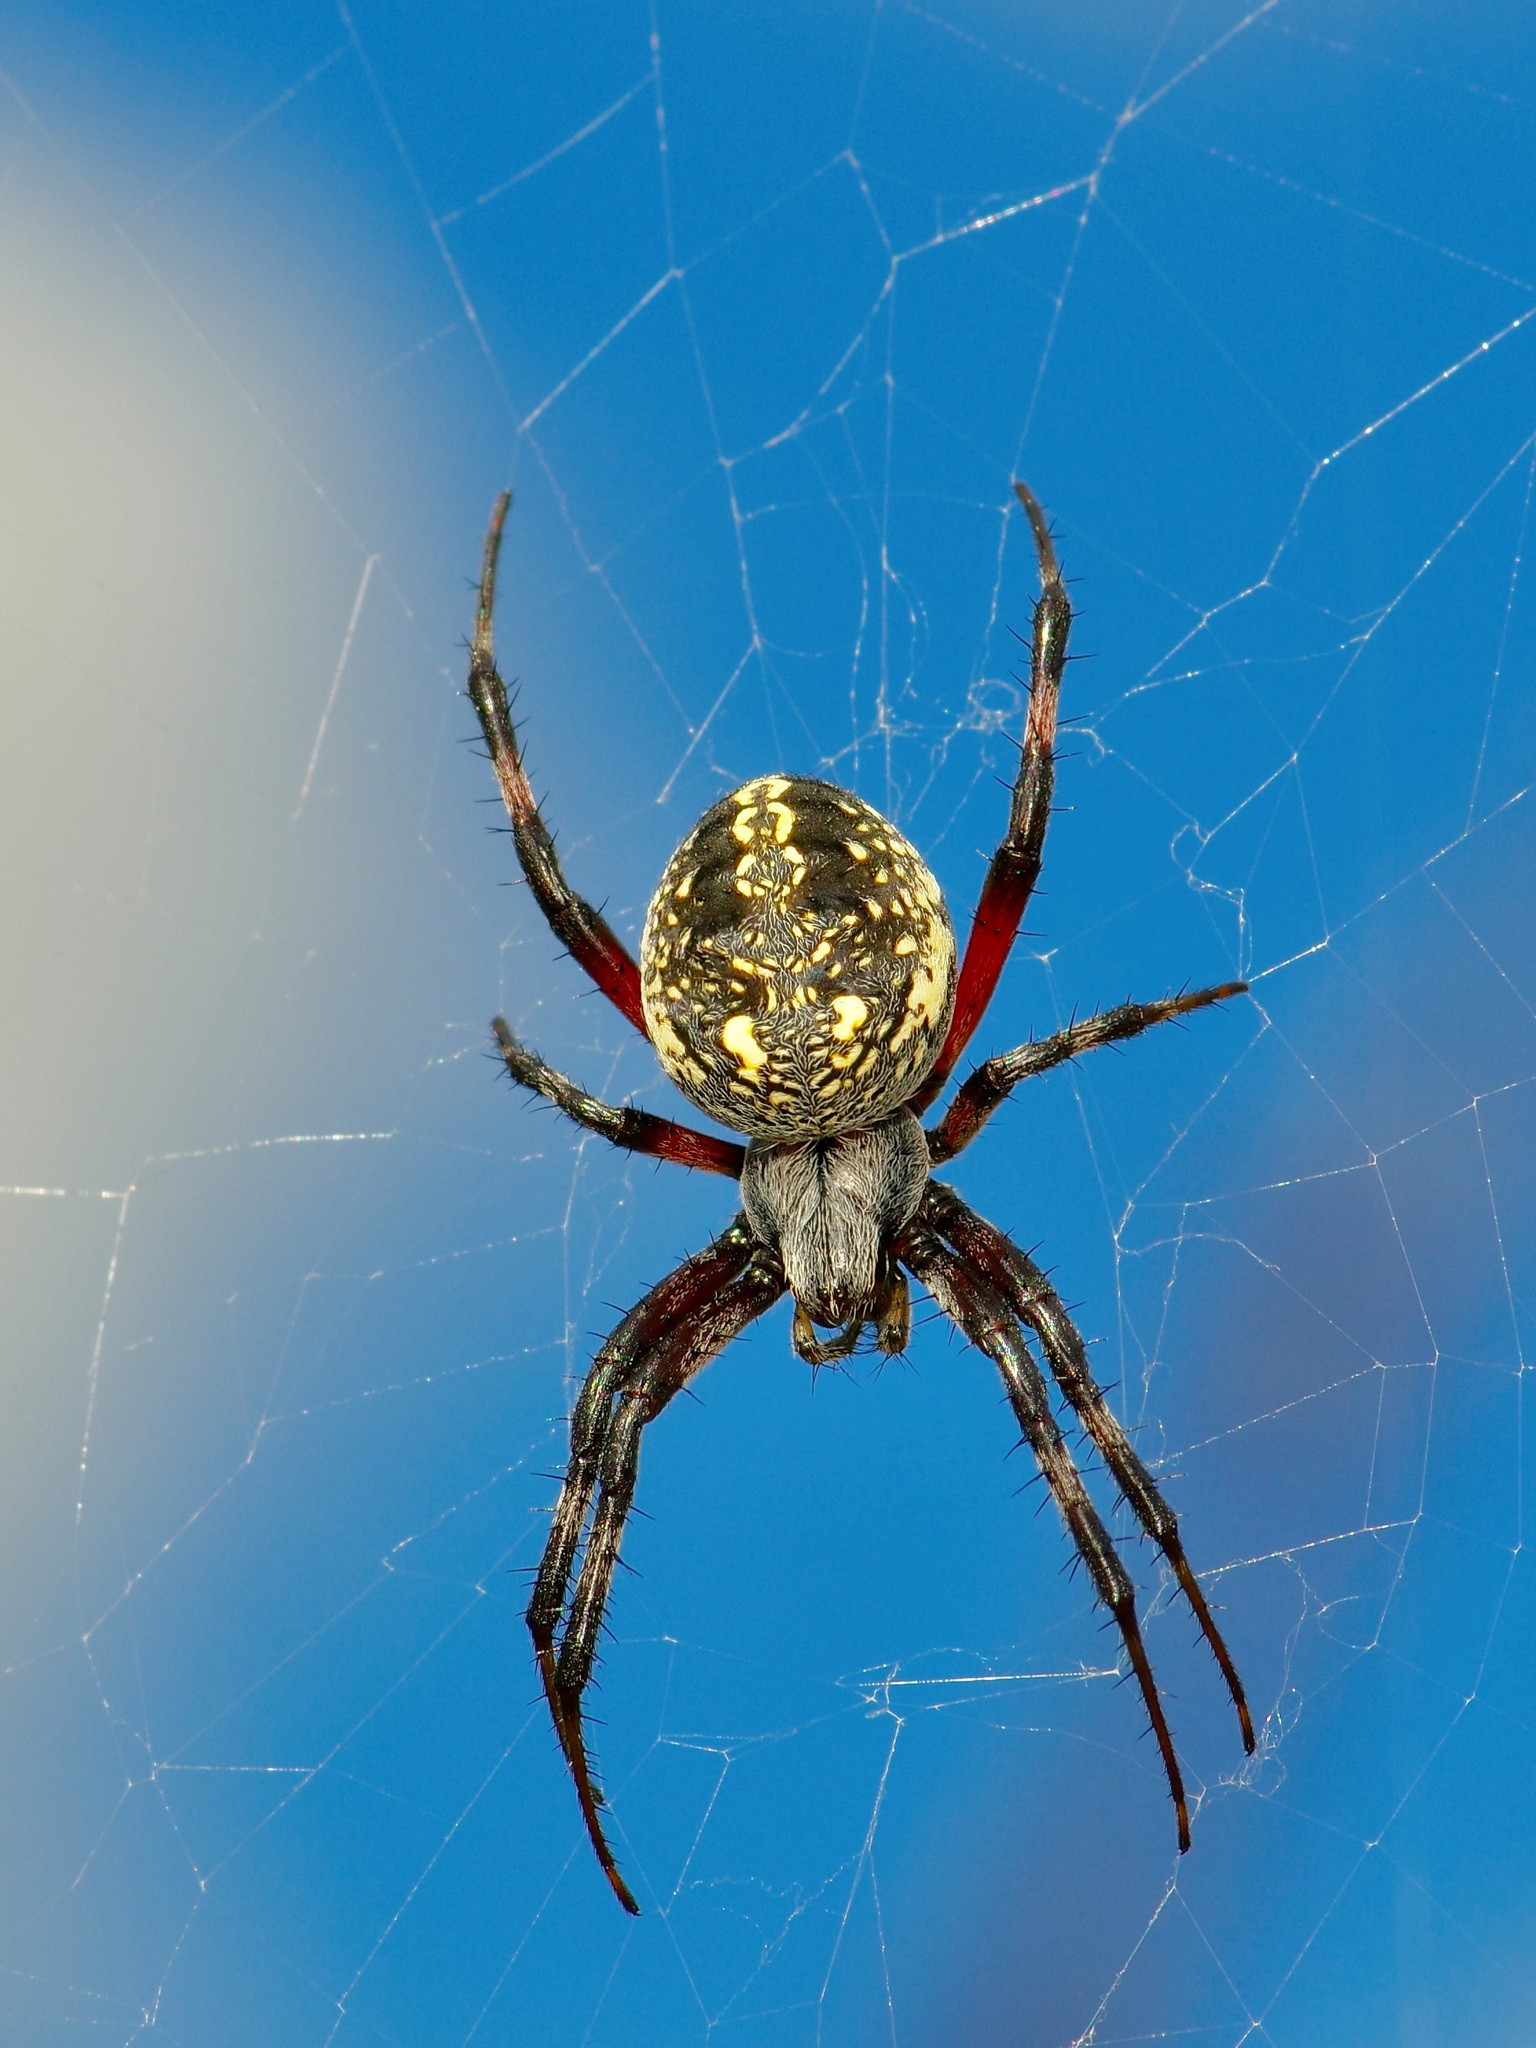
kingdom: Animalia
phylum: Arthropoda
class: Arachnida
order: Araneae
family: Araneidae
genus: Neoscona
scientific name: Neoscona oaxacensis
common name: Orb weavers
